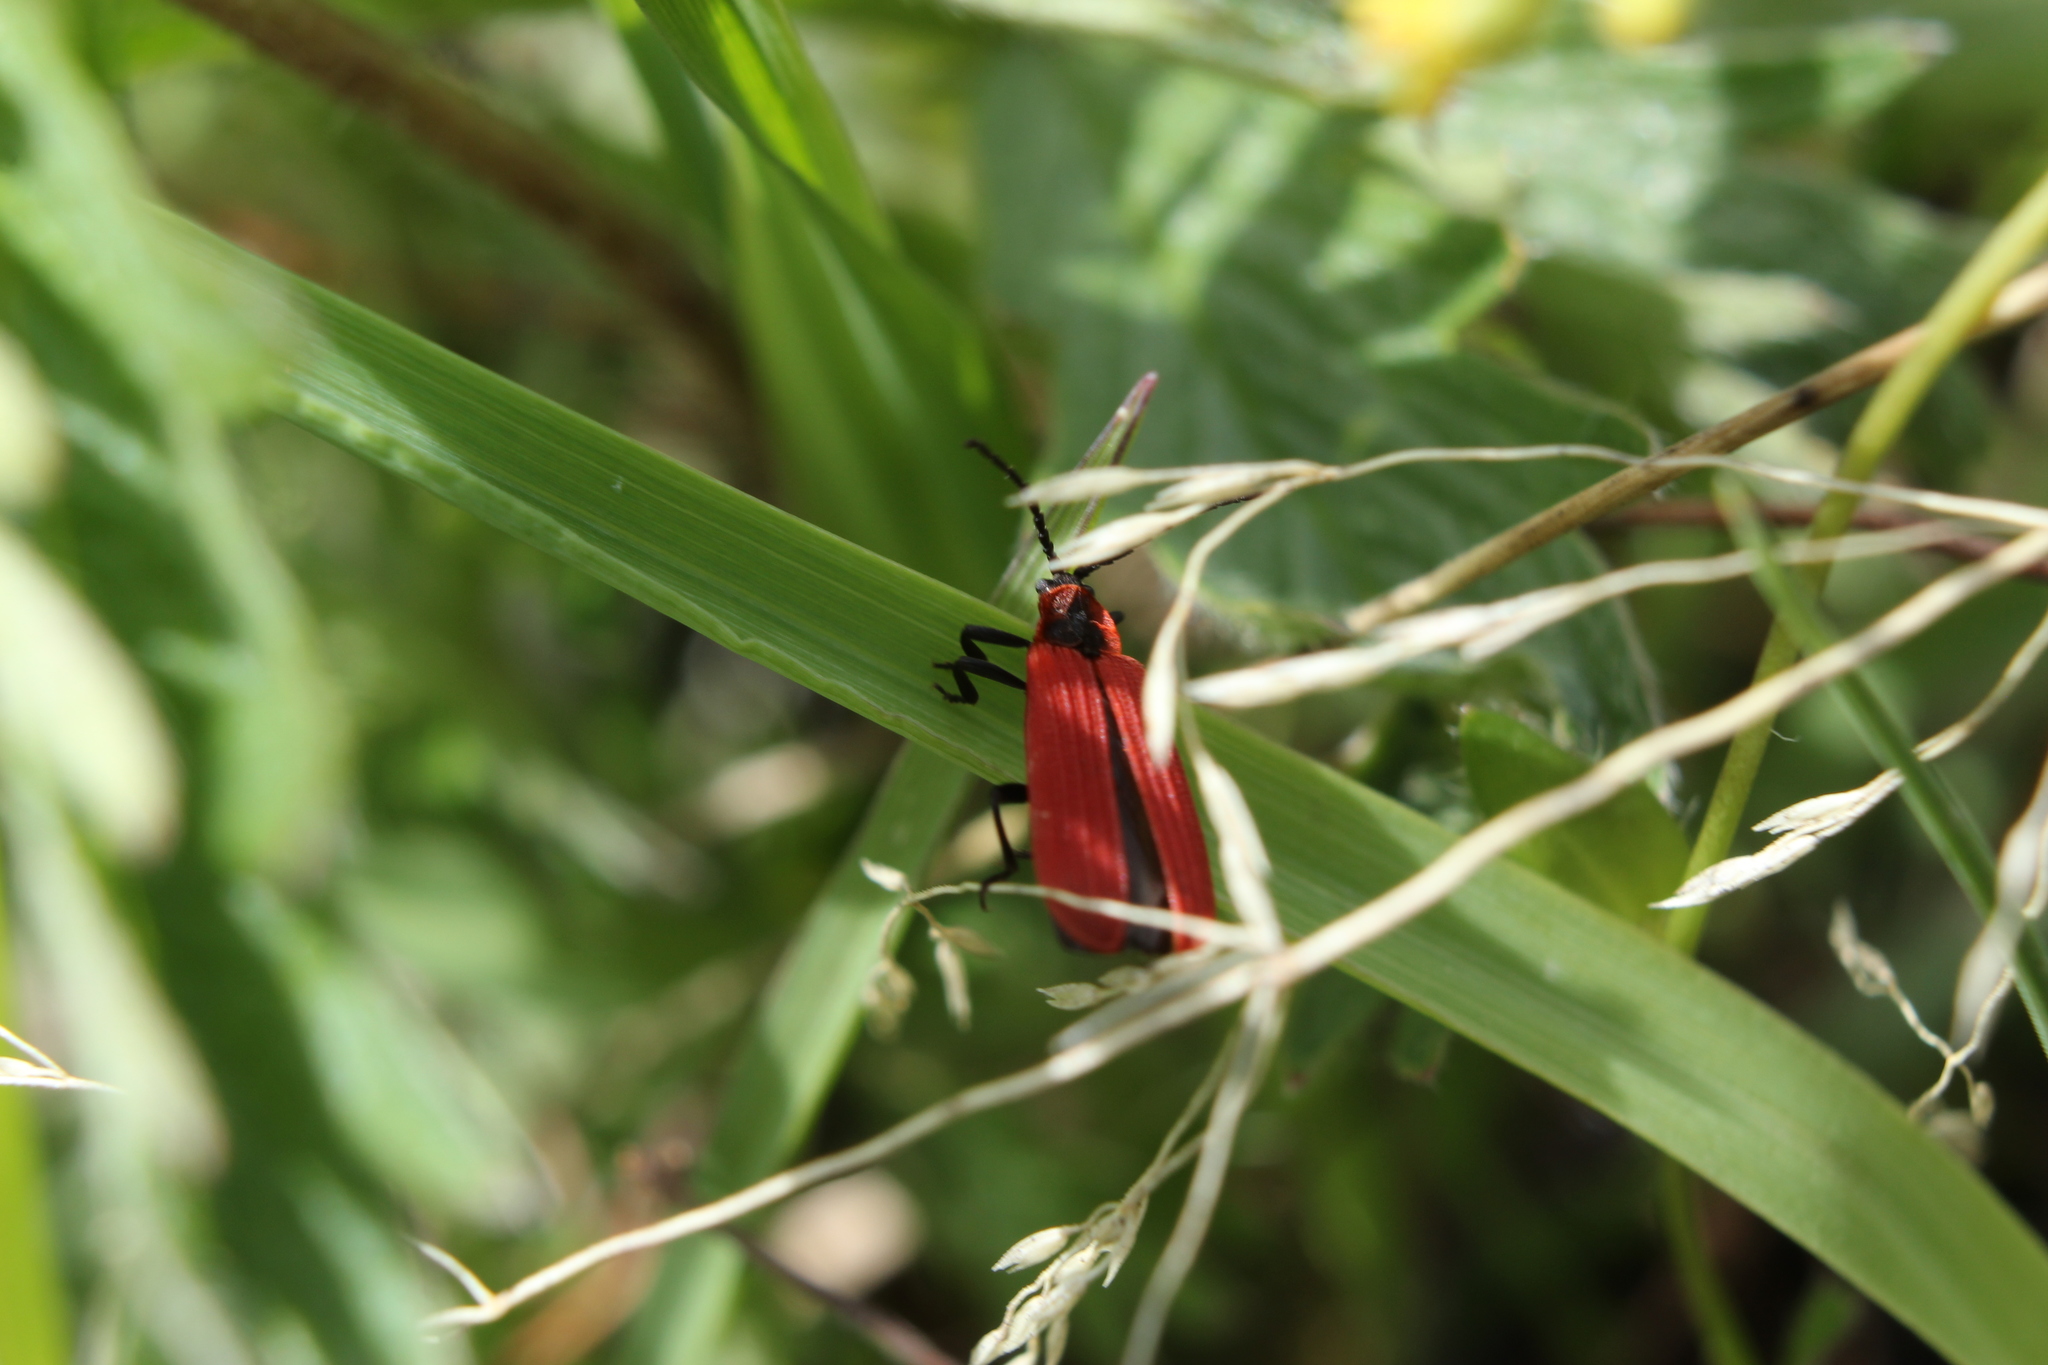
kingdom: Animalia
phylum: Arthropoda
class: Insecta
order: Coleoptera
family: Lycidae
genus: Dictyoptera
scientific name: Dictyoptera aurora
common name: Golden net-winged beetle
